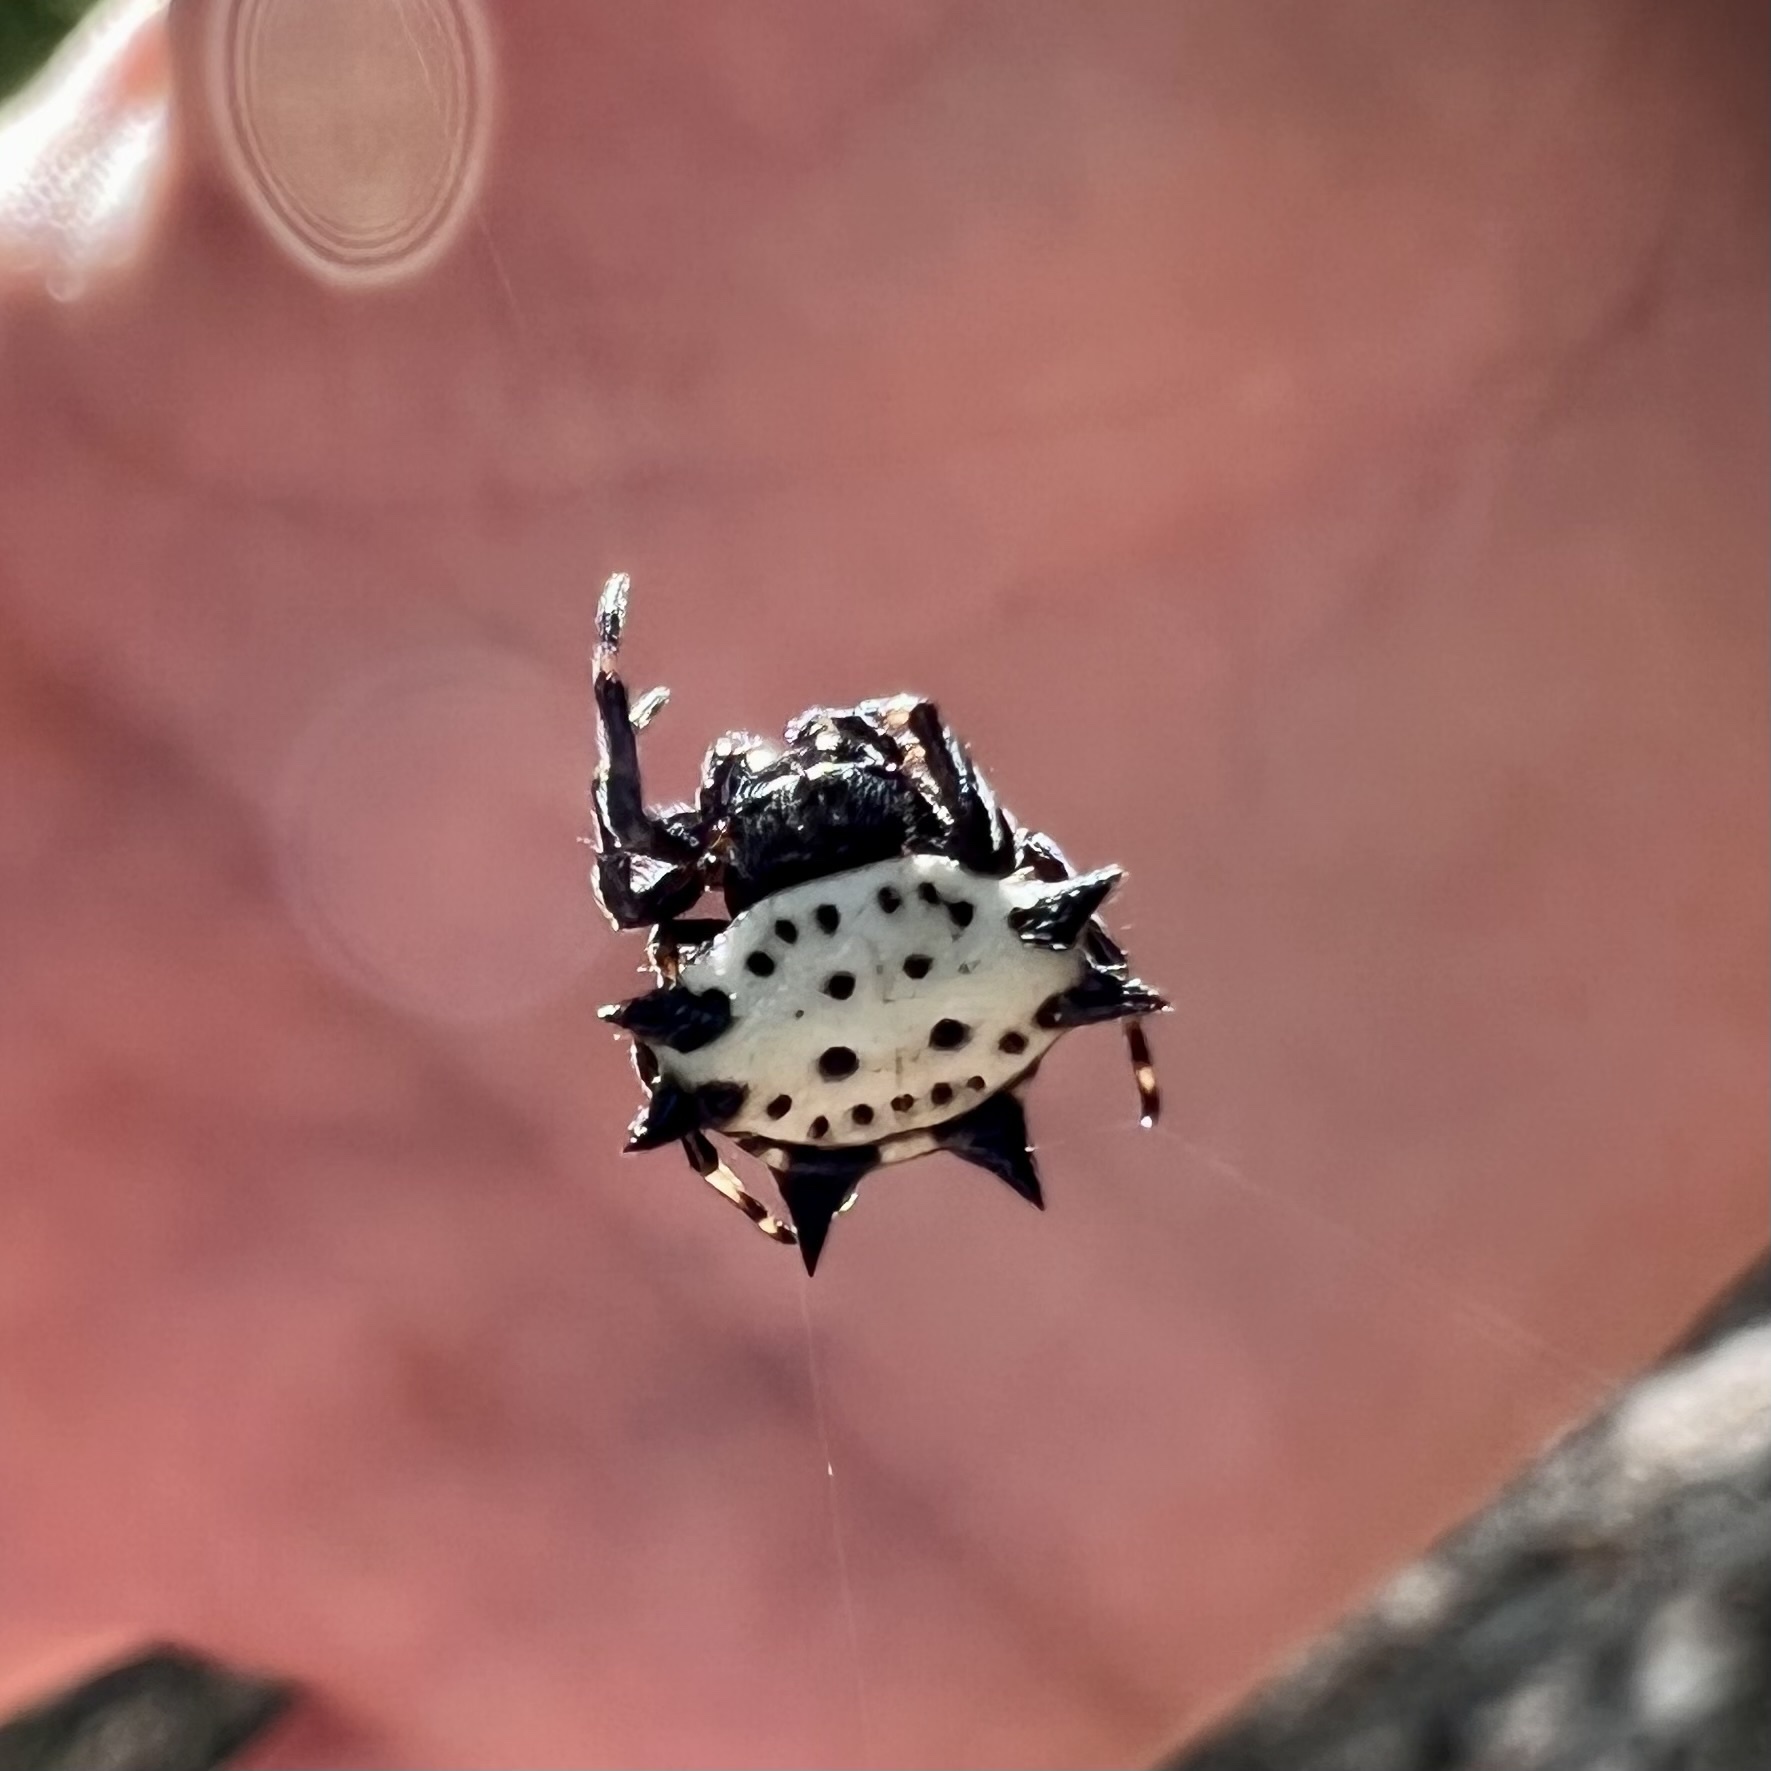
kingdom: Animalia
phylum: Arthropoda
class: Arachnida
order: Araneae
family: Araneidae
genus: Gasteracantha
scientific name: Gasteracantha cancriformis
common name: Orb weavers
